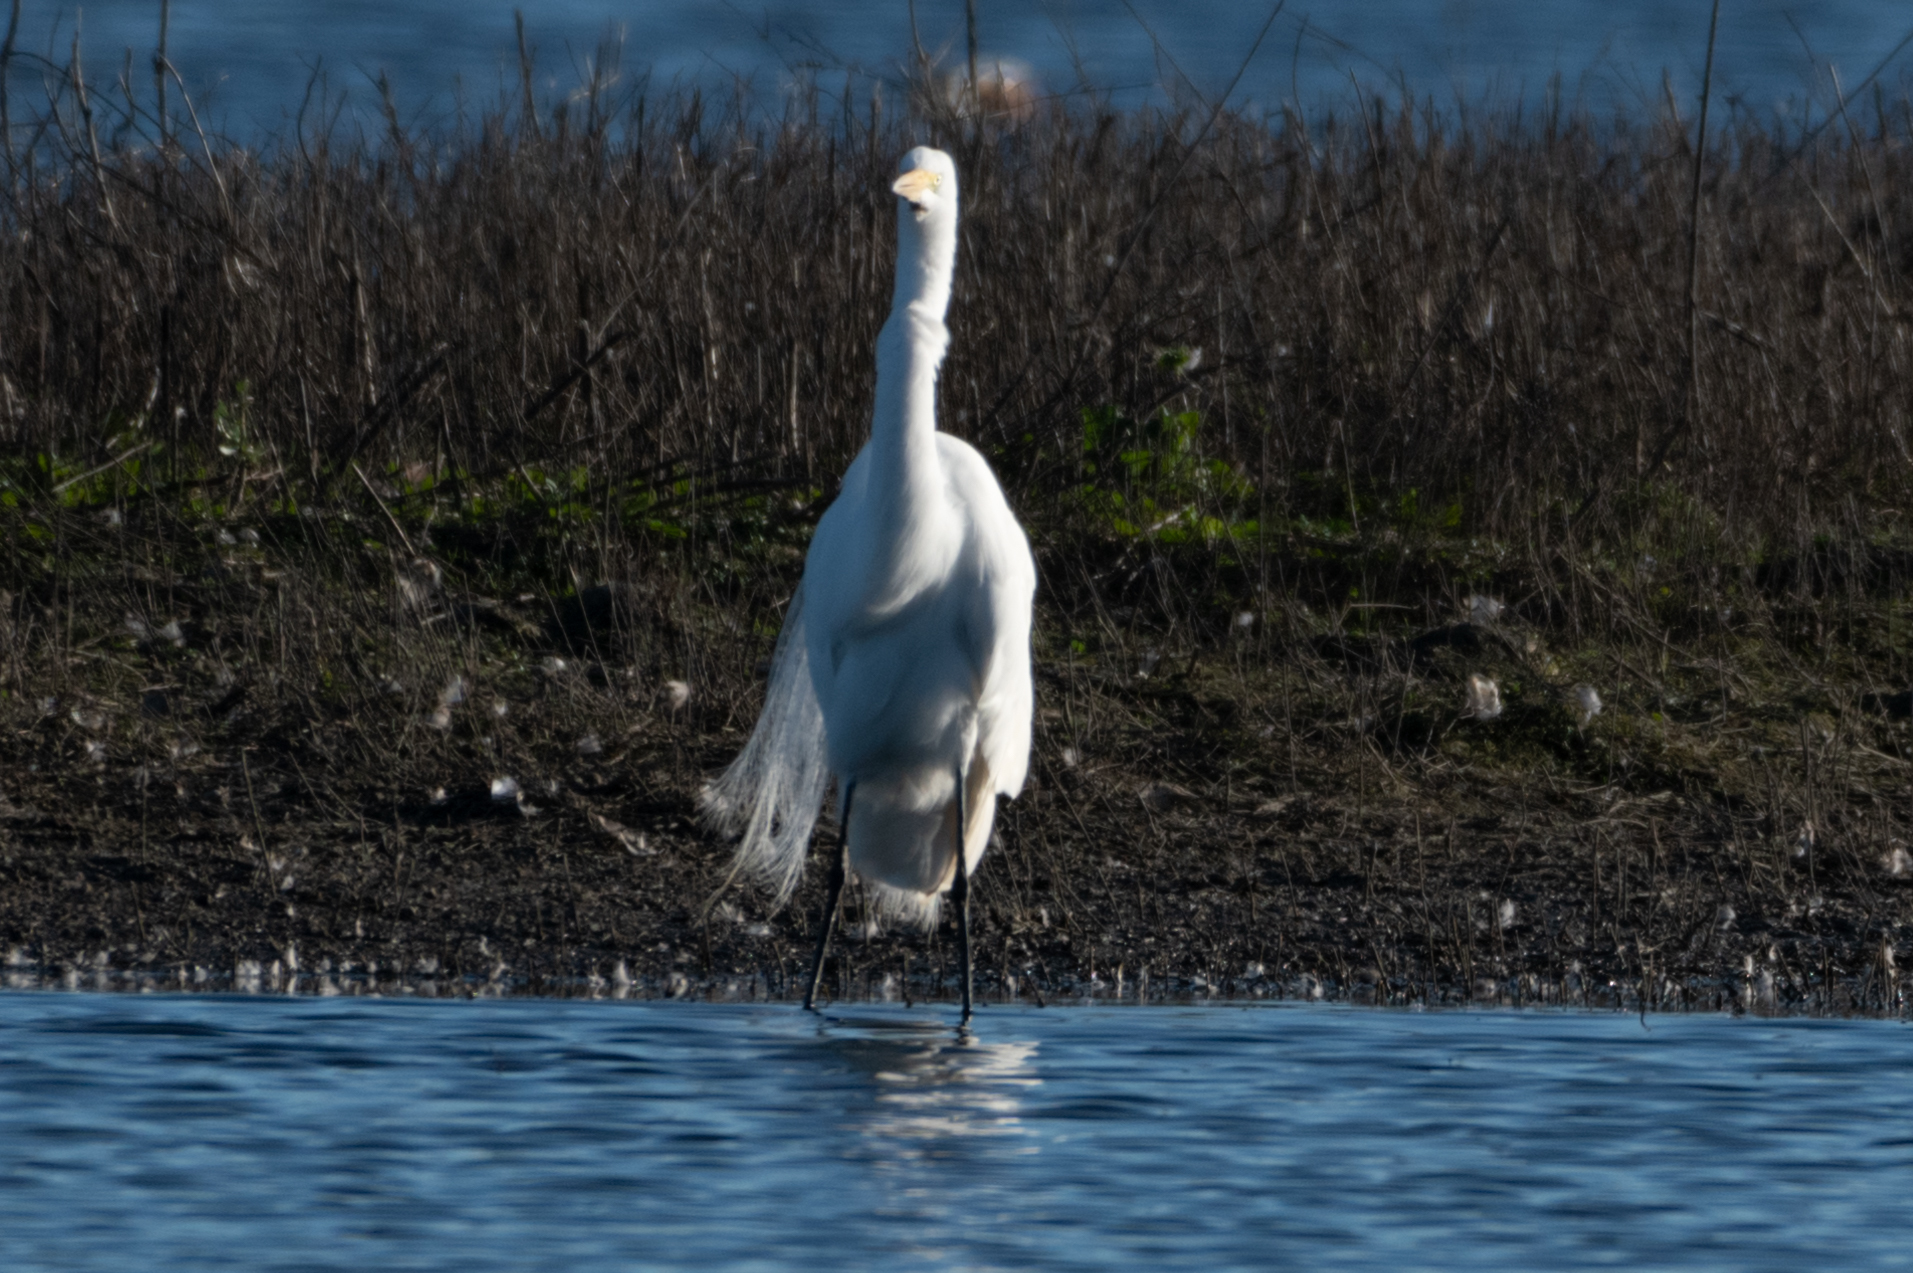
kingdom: Animalia
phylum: Chordata
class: Aves
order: Pelecaniformes
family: Ardeidae
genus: Ardea
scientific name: Ardea alba
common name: Great egret
